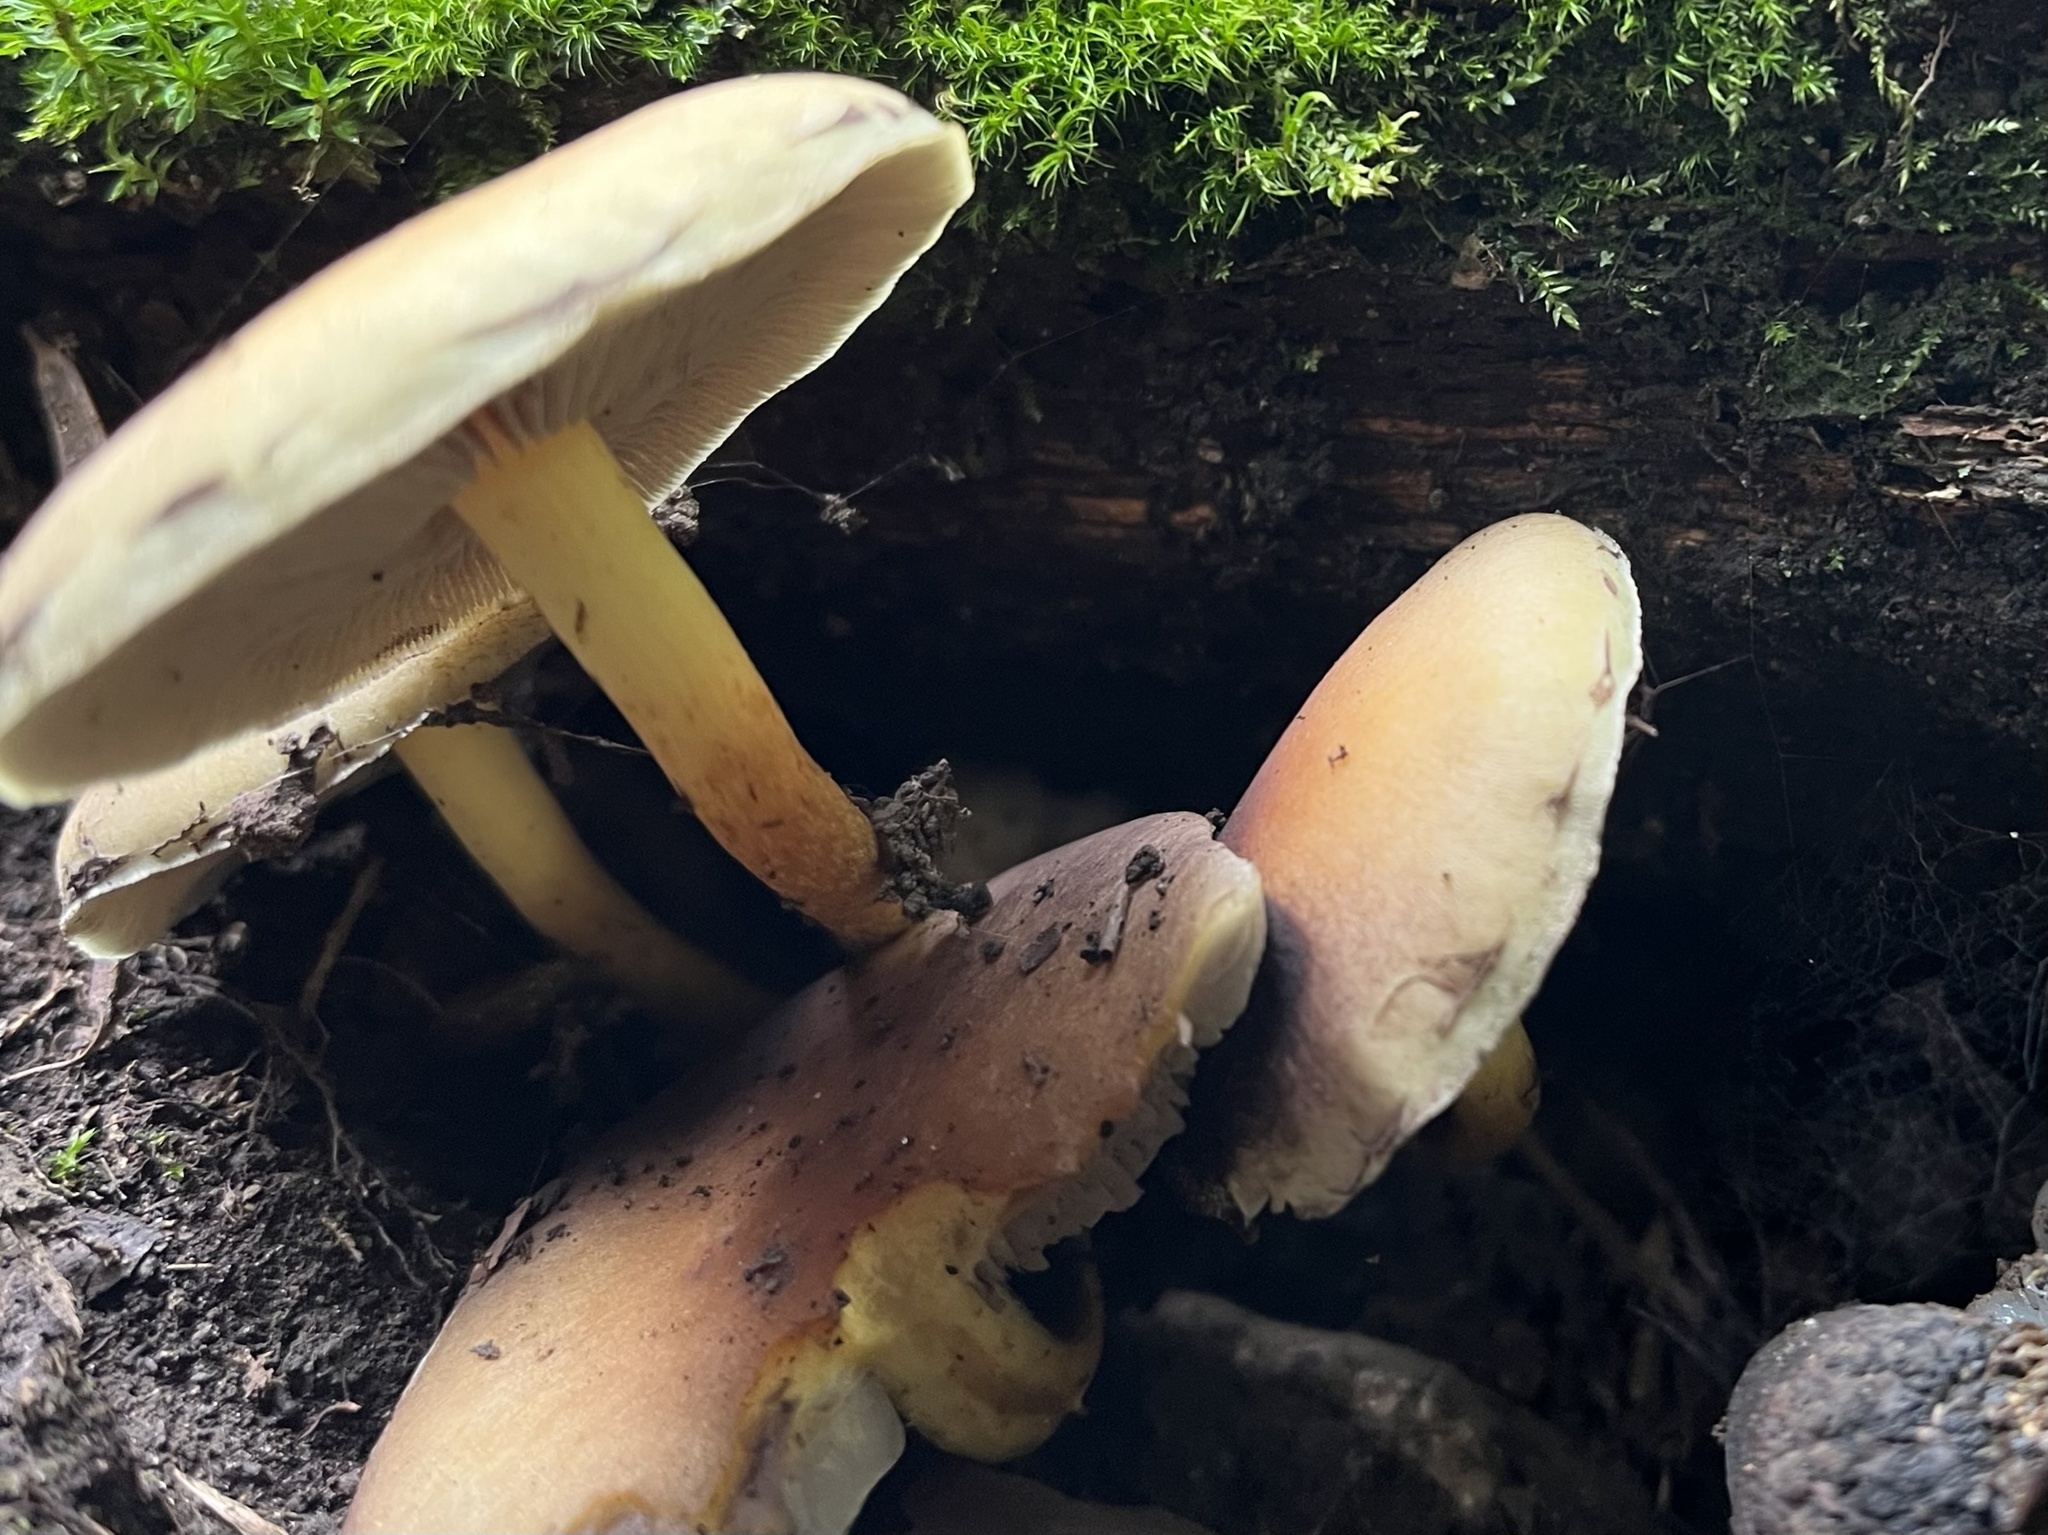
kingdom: Fungi
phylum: Basidiomycota
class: Agaricomycetes
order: Agaricales
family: Strophariaceae
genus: Hypholoma
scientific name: Hypholoma fasciculare
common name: Sulphur tuft
